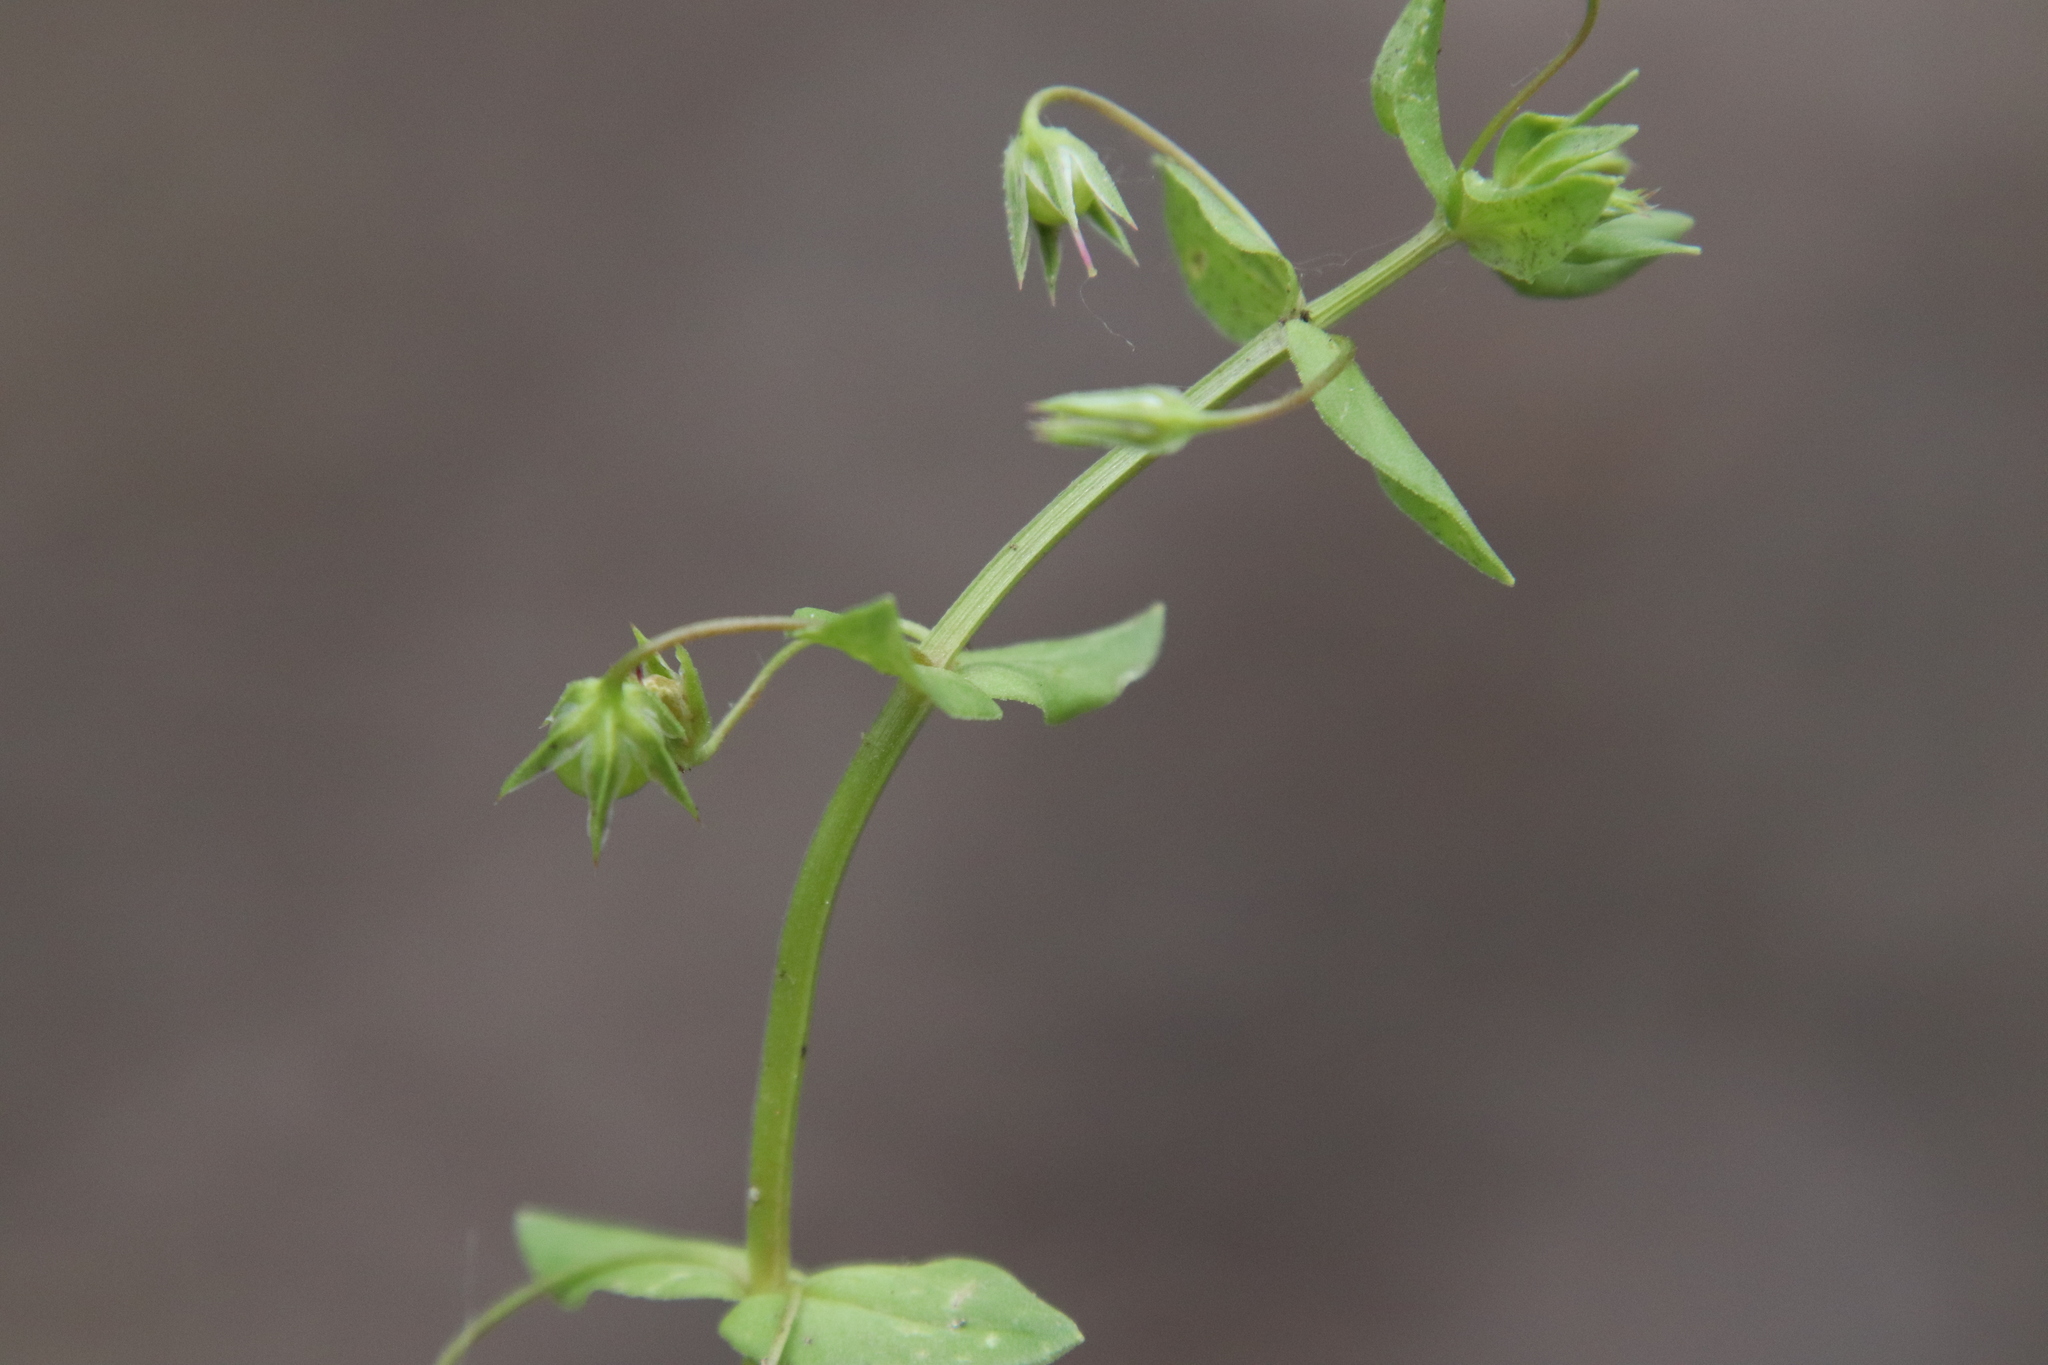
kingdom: Plantae
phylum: Tracheophyta
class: Magnoliopsida
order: Ericales
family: Primulaceae
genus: Lysimachia
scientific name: Lysimachia arvensis
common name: Scarlet pimpernel
